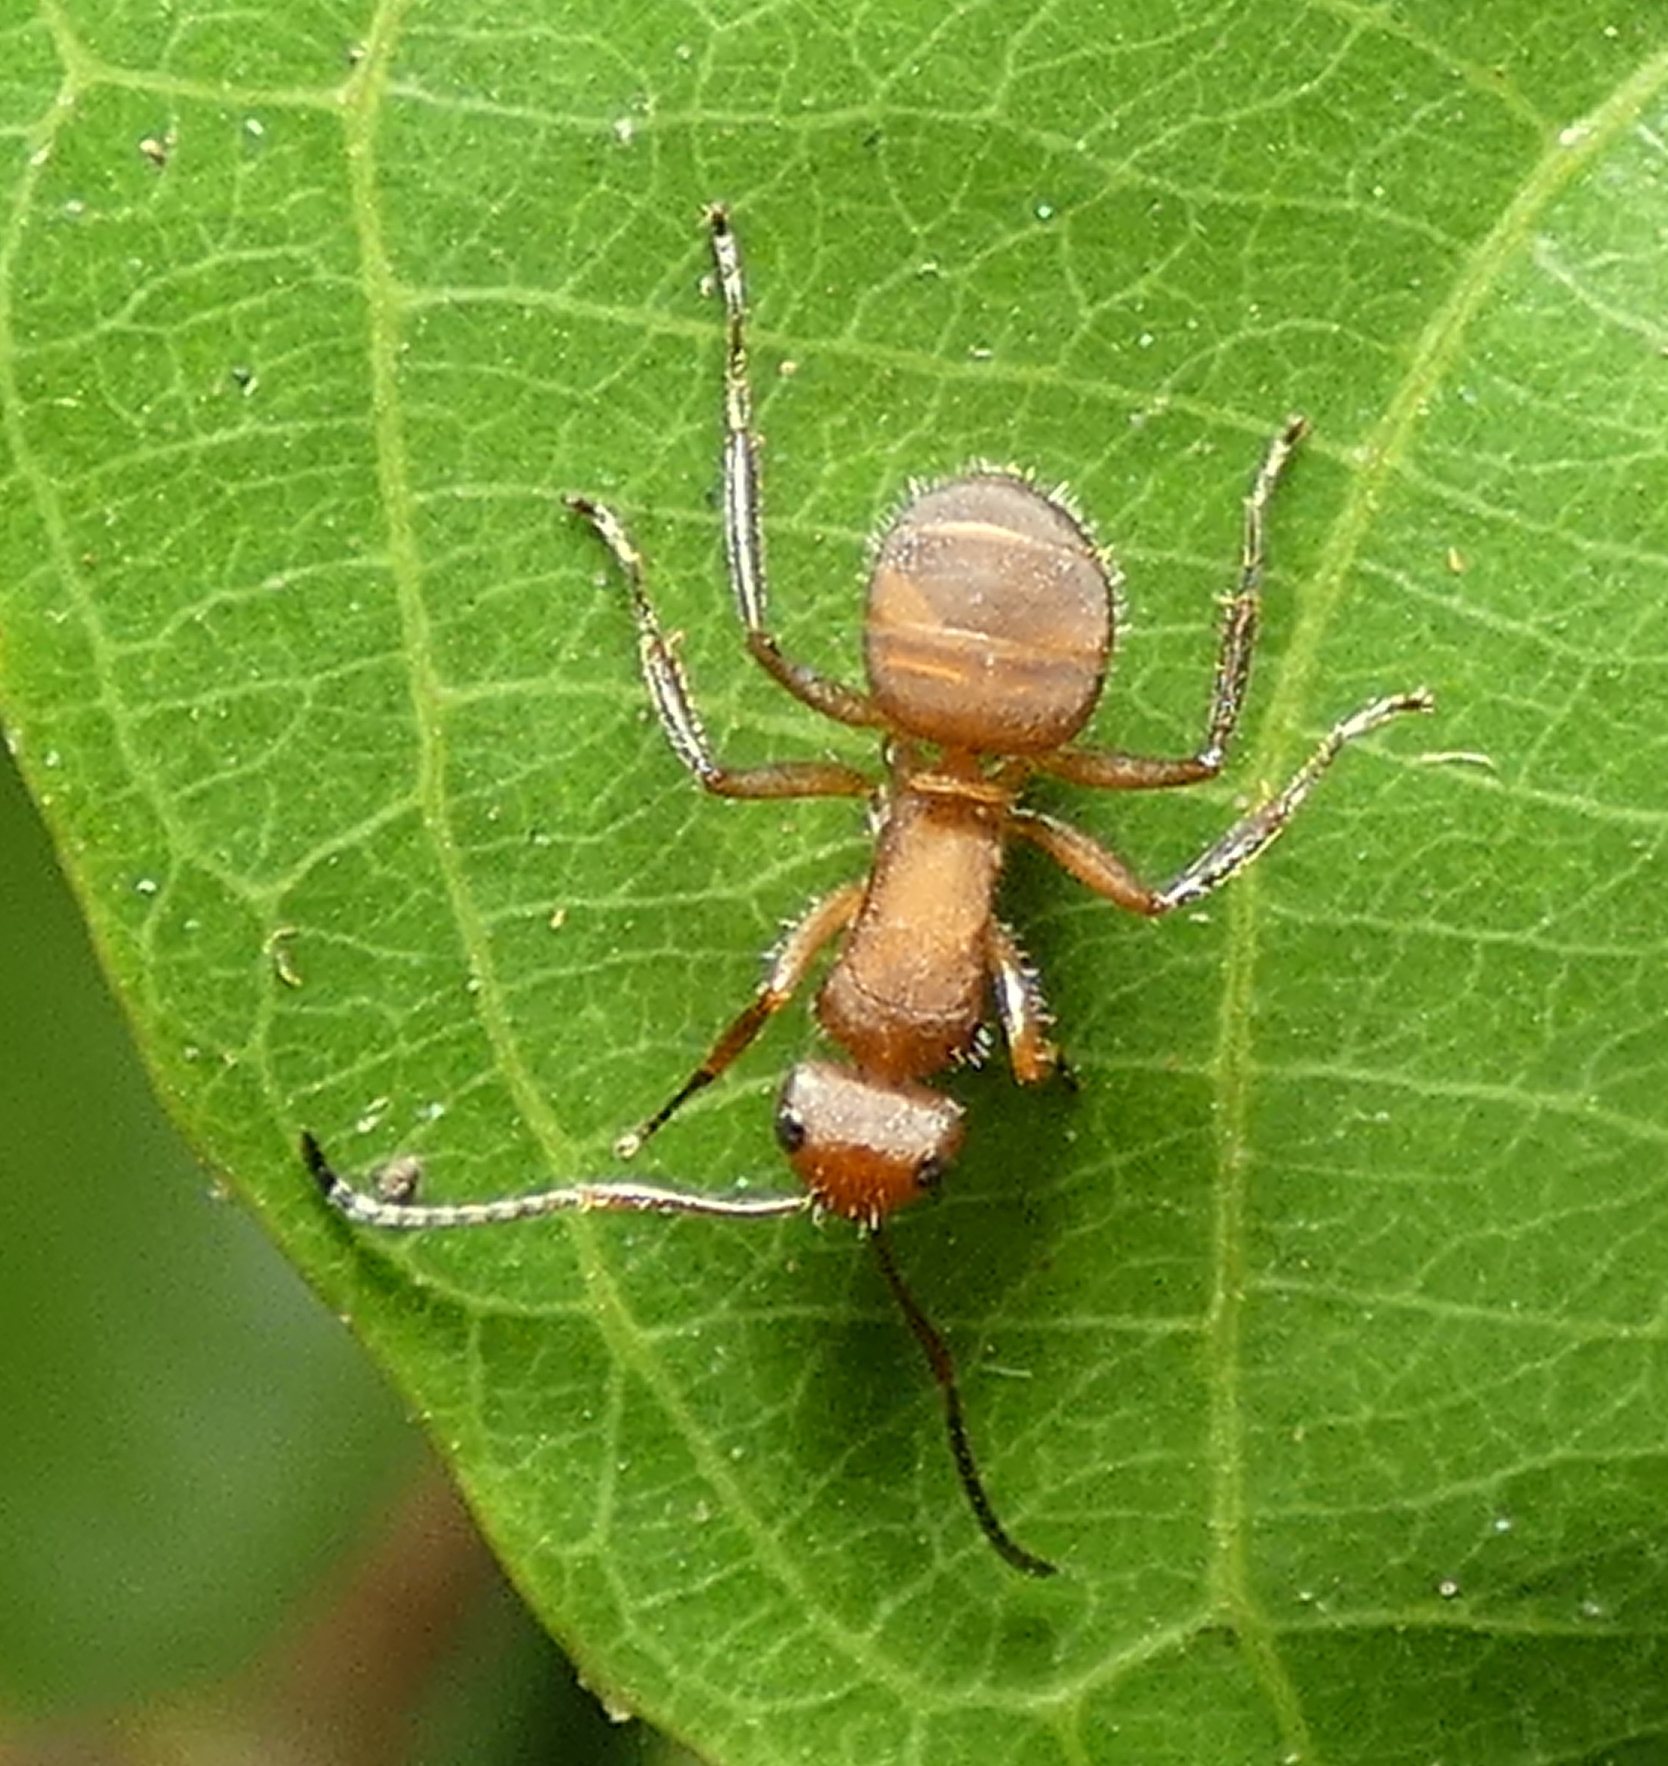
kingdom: Animalia
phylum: Arthropoda
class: Insecta
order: Hymenoptera
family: Formicidae
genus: Camponotus
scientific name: Camponotus rectangularis
